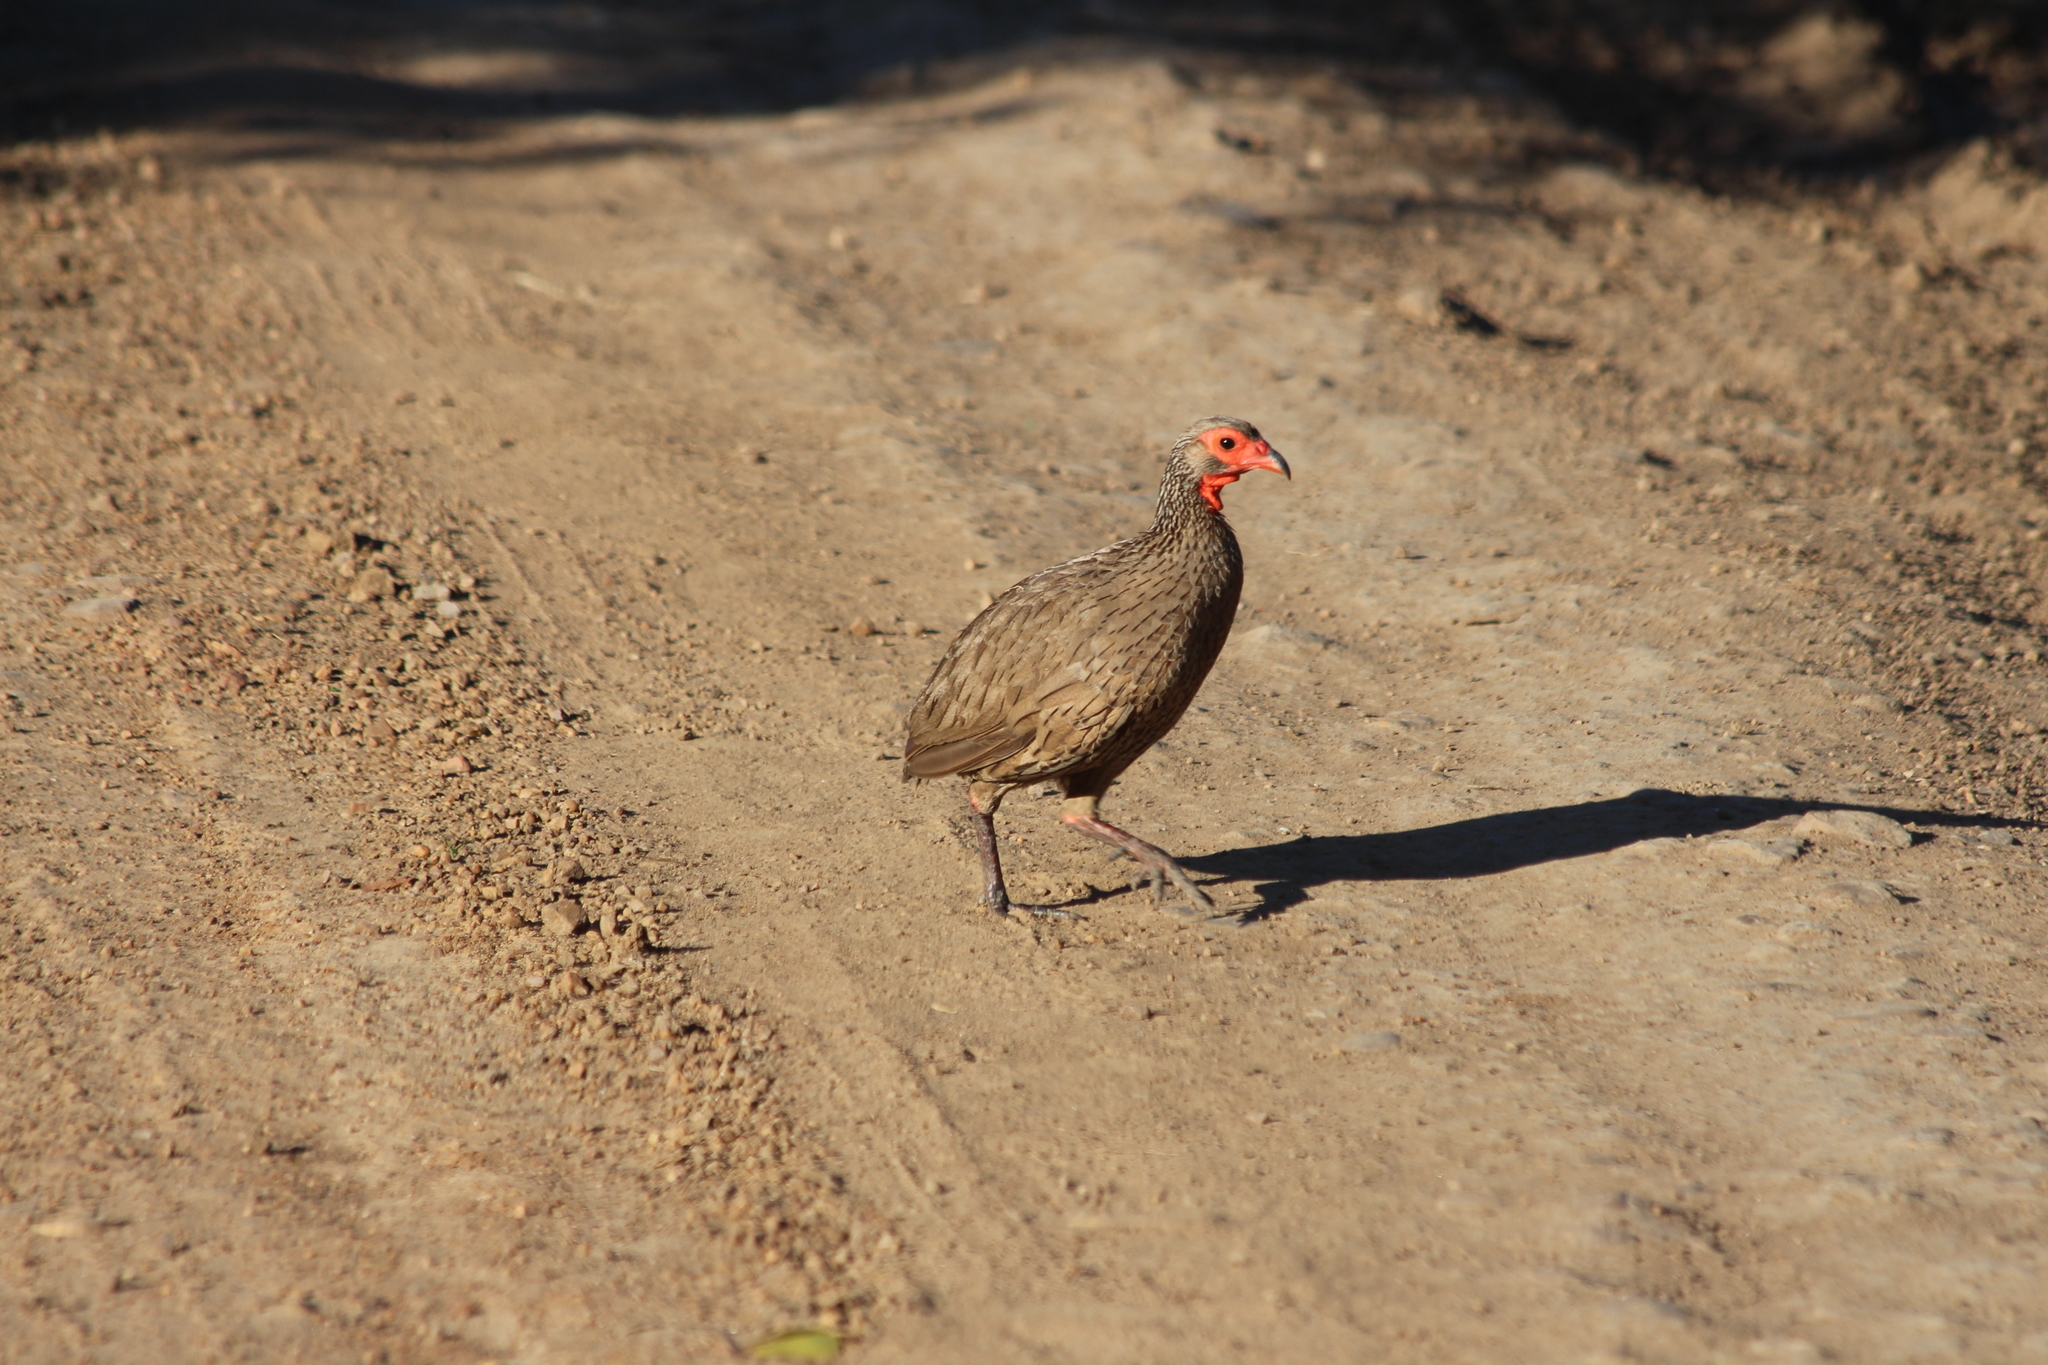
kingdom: Animalia
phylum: Chordata
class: Aves
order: Galliformes
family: Phasianidae
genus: Pternistis
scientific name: Pternistis swainsonii
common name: Swainson's spurfowl
